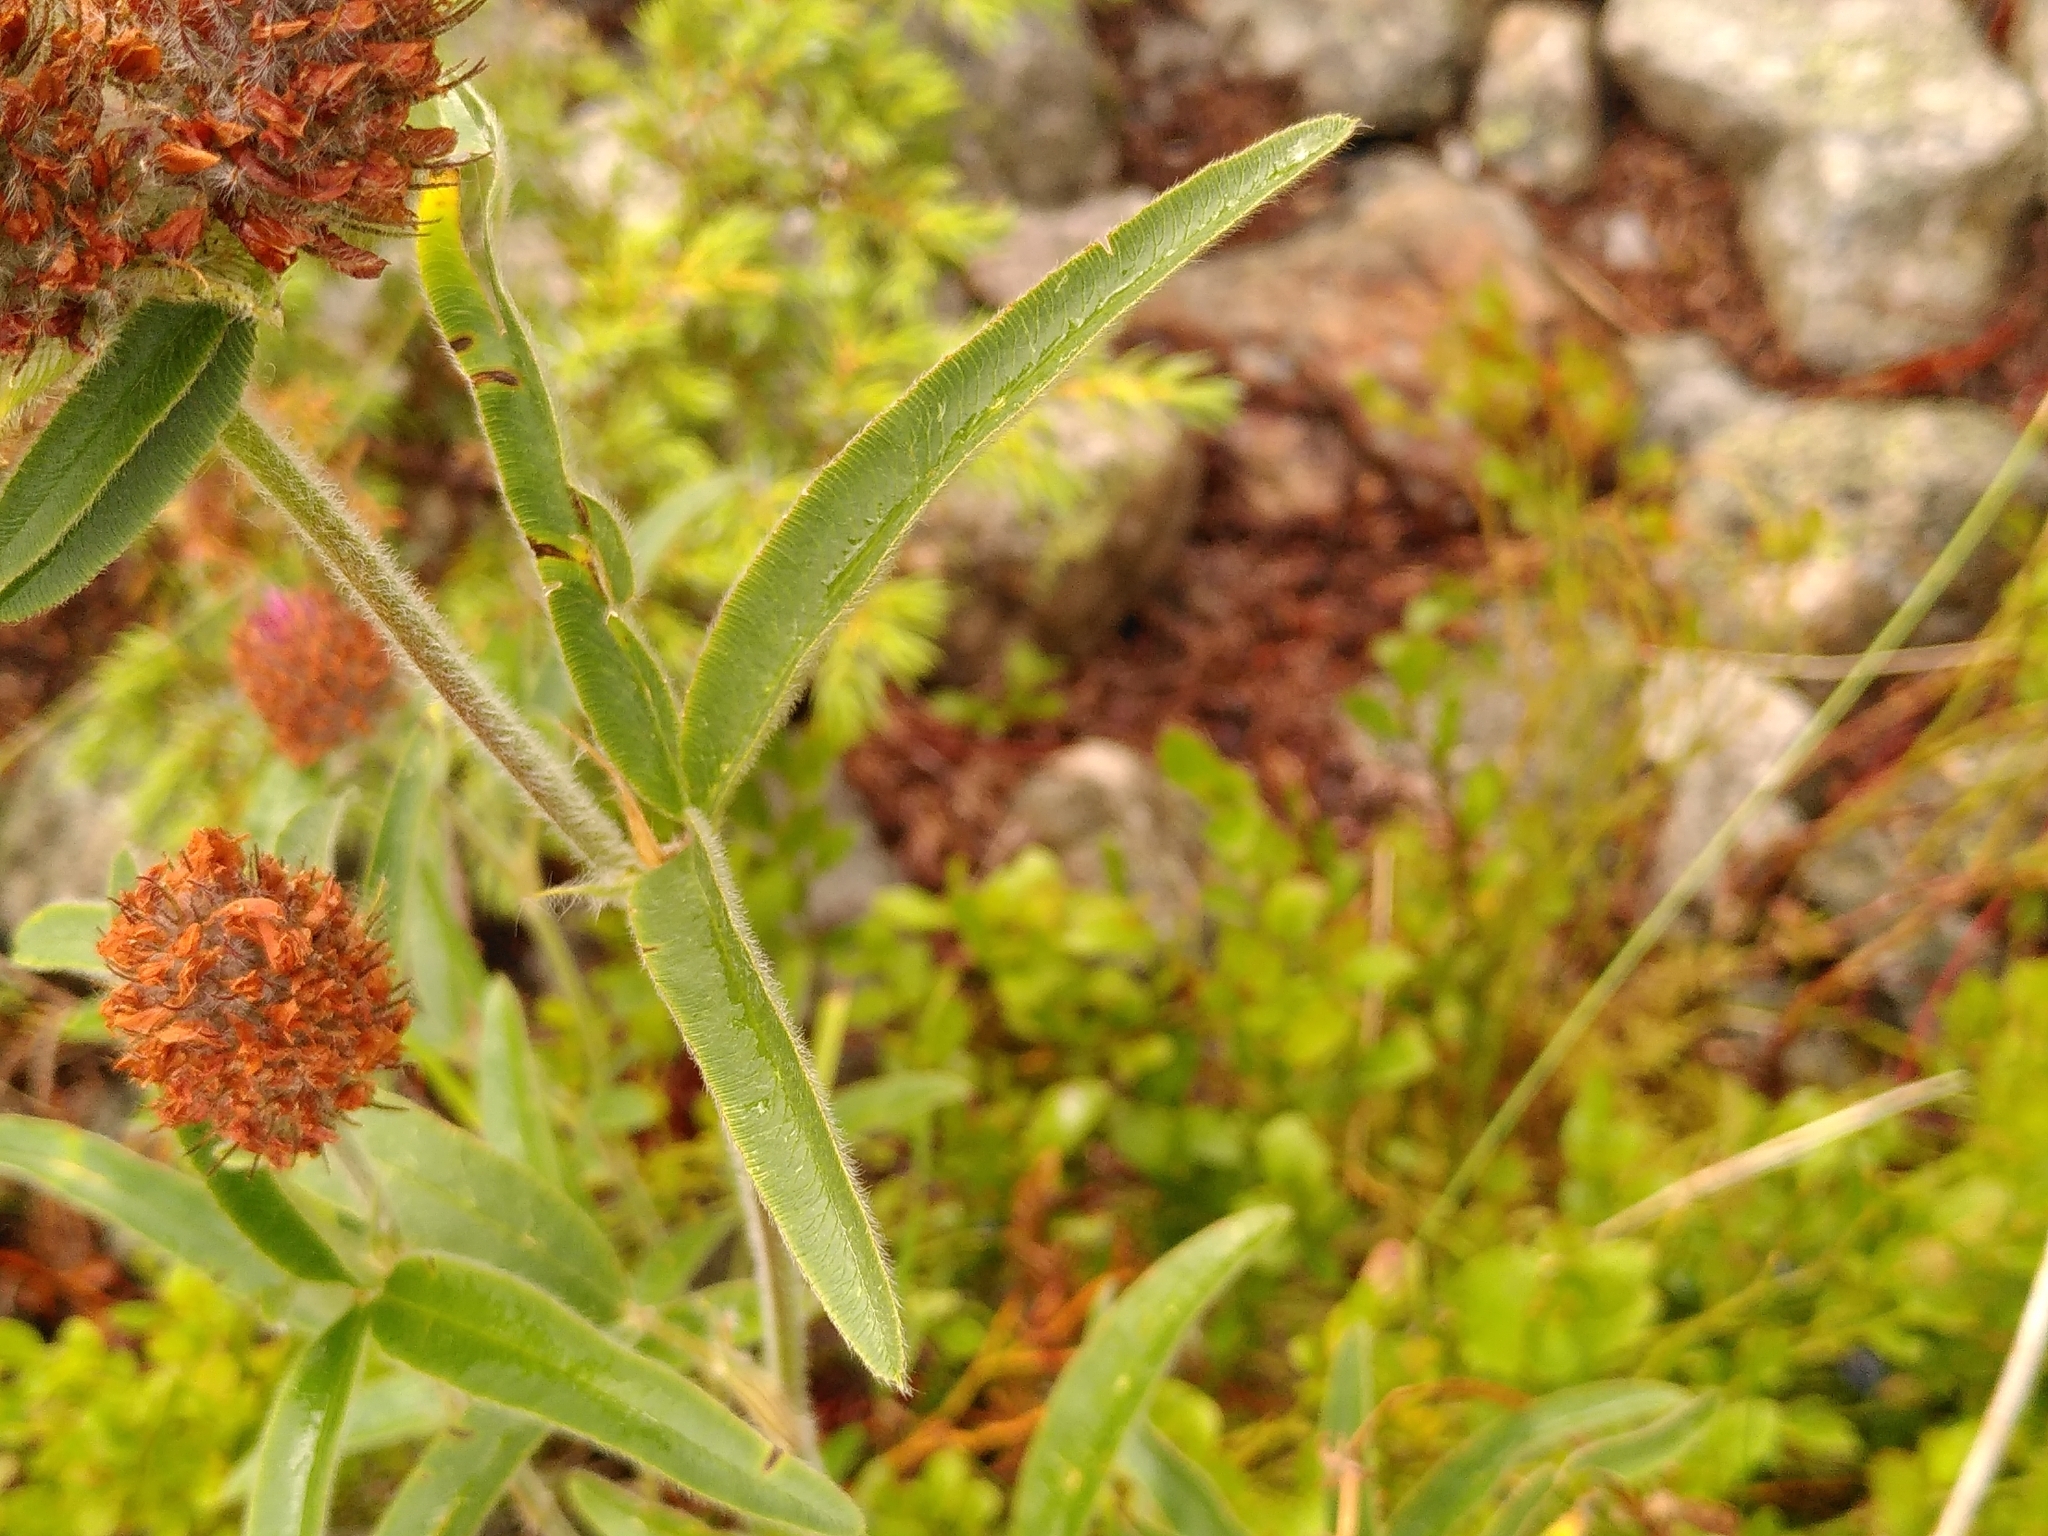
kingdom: Plantae
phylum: Tracheophyta
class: Magnoliopsida
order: Fabales
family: Fabaceae
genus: Trifolium
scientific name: Trifolium alpestre
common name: Owl-head clover
